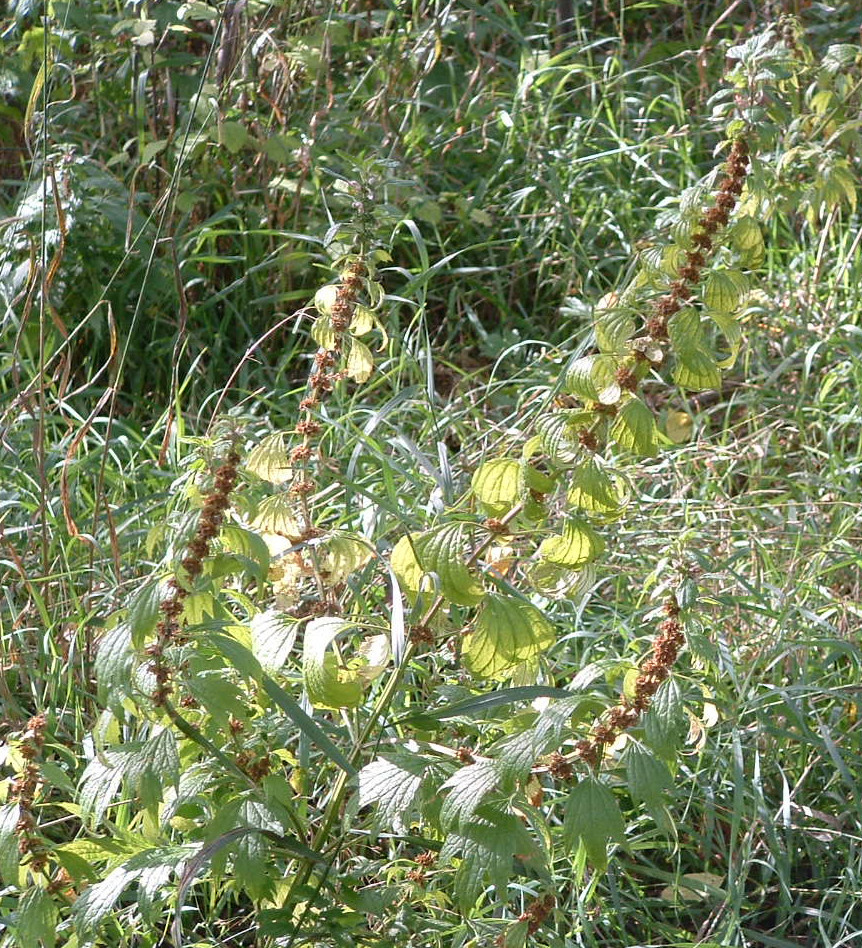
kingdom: Plantae
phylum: Tracheophyta
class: Magnoliopsida
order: Lamiales
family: Lamiaceae
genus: Leonurus
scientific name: Leonurus cardiaca
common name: Motherwort
